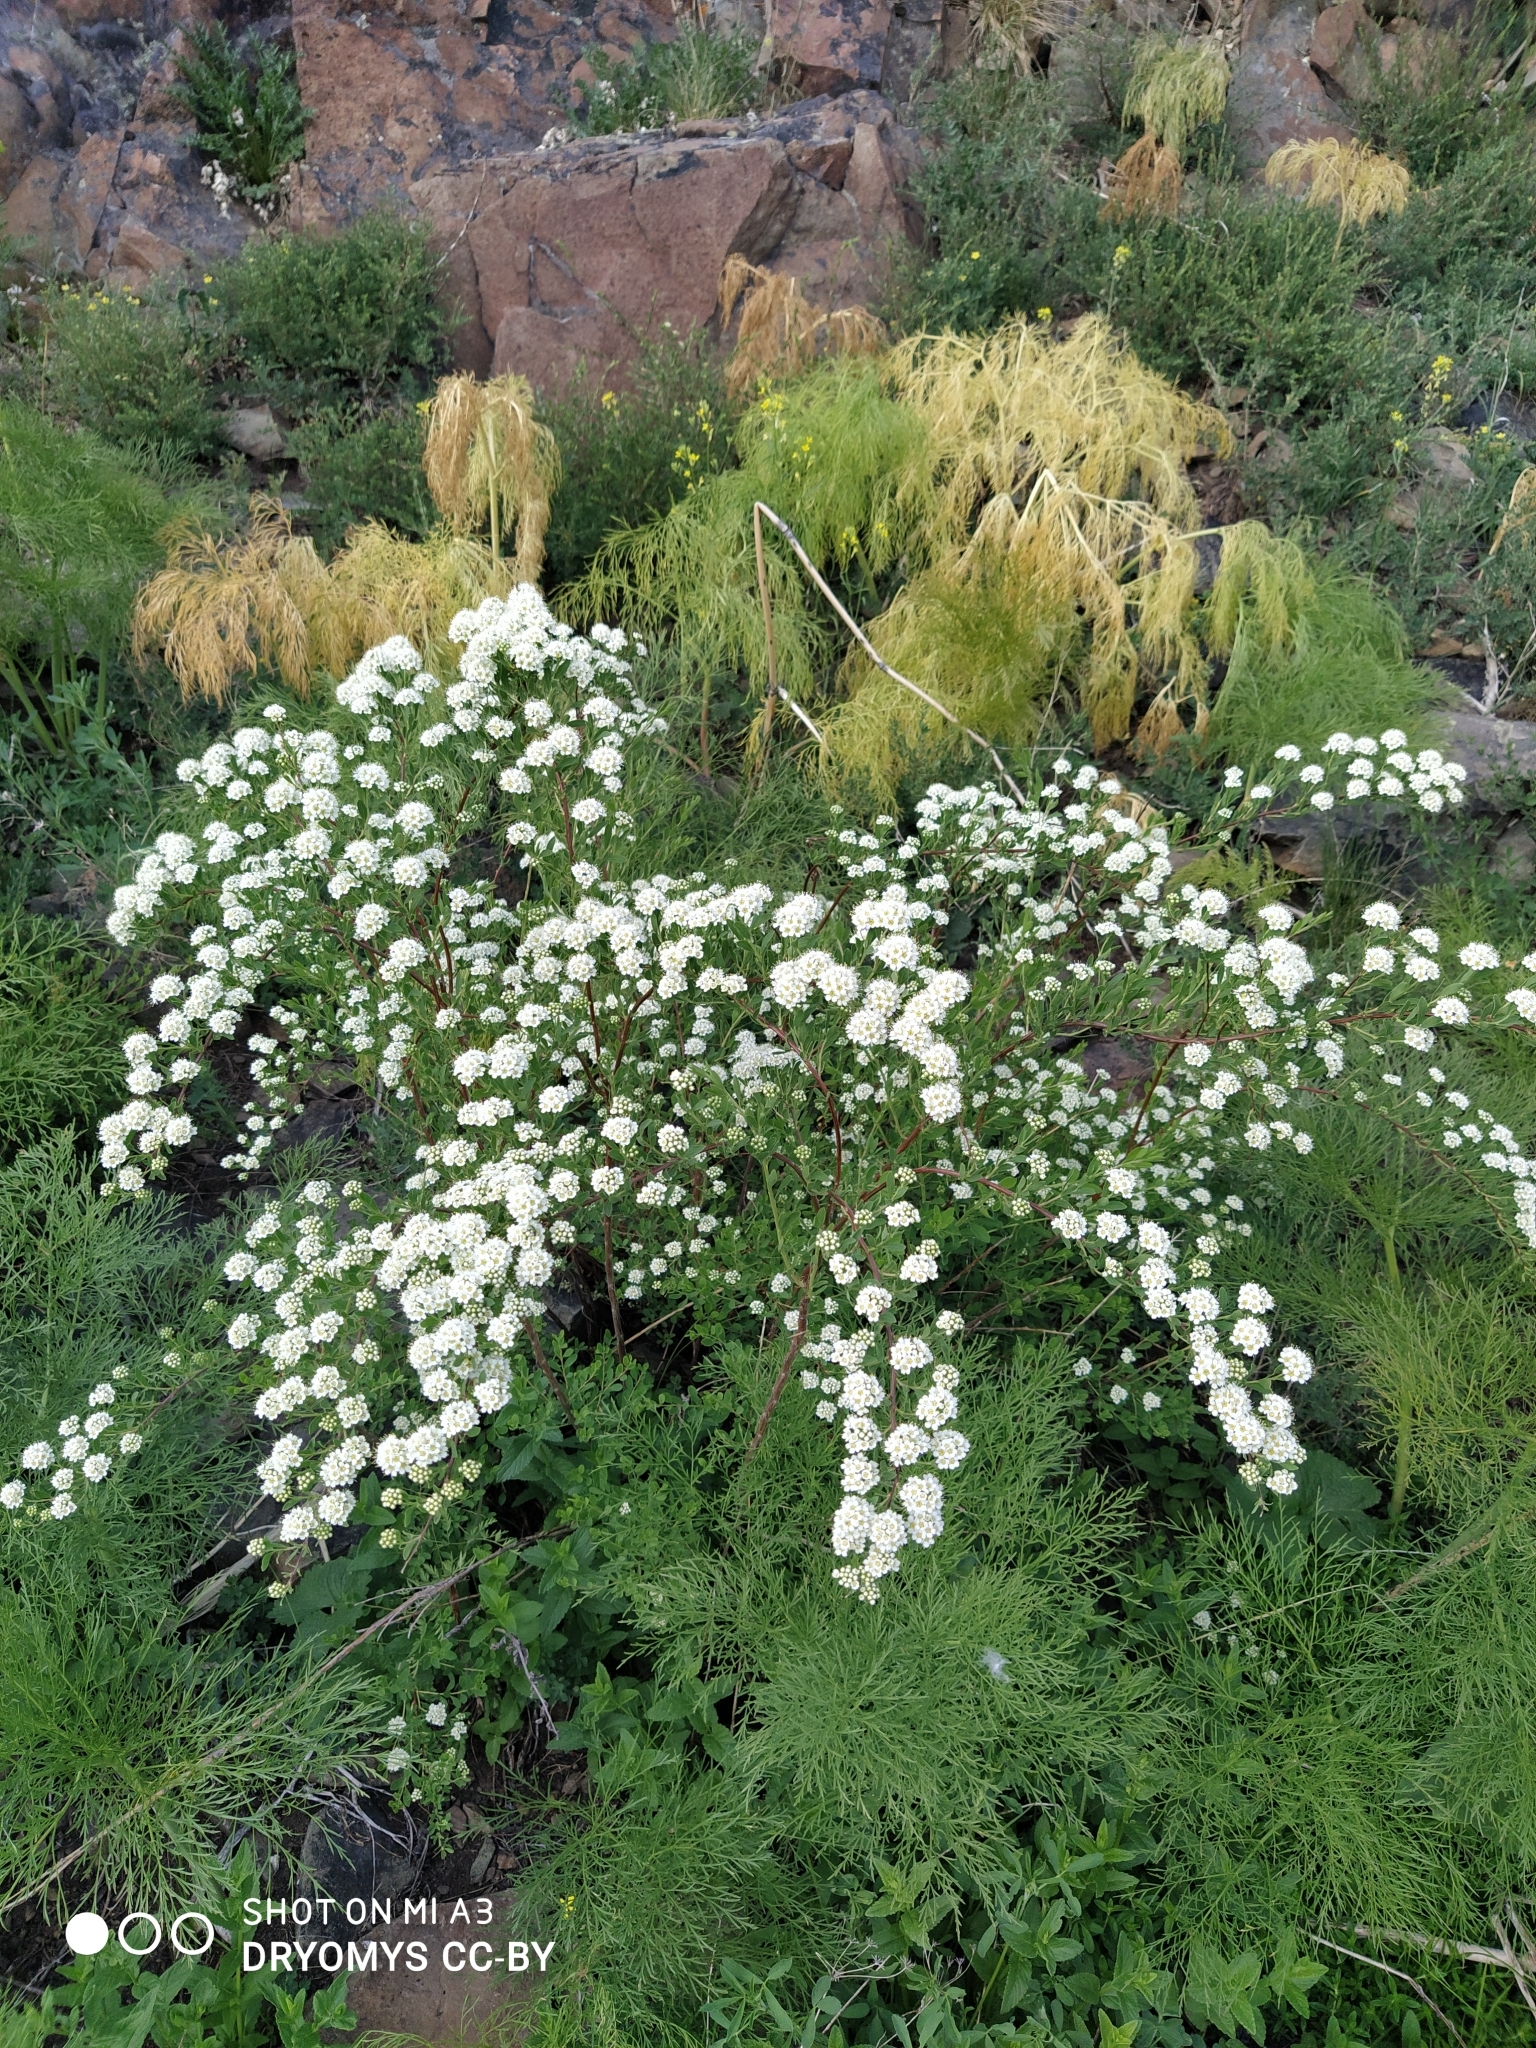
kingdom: Plantae
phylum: Tracheophyta
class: Magnoliopsida
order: Rosales
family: Rosaceae
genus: Spiraea
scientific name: Spiraea hypericifolia
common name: Iberian spirea
